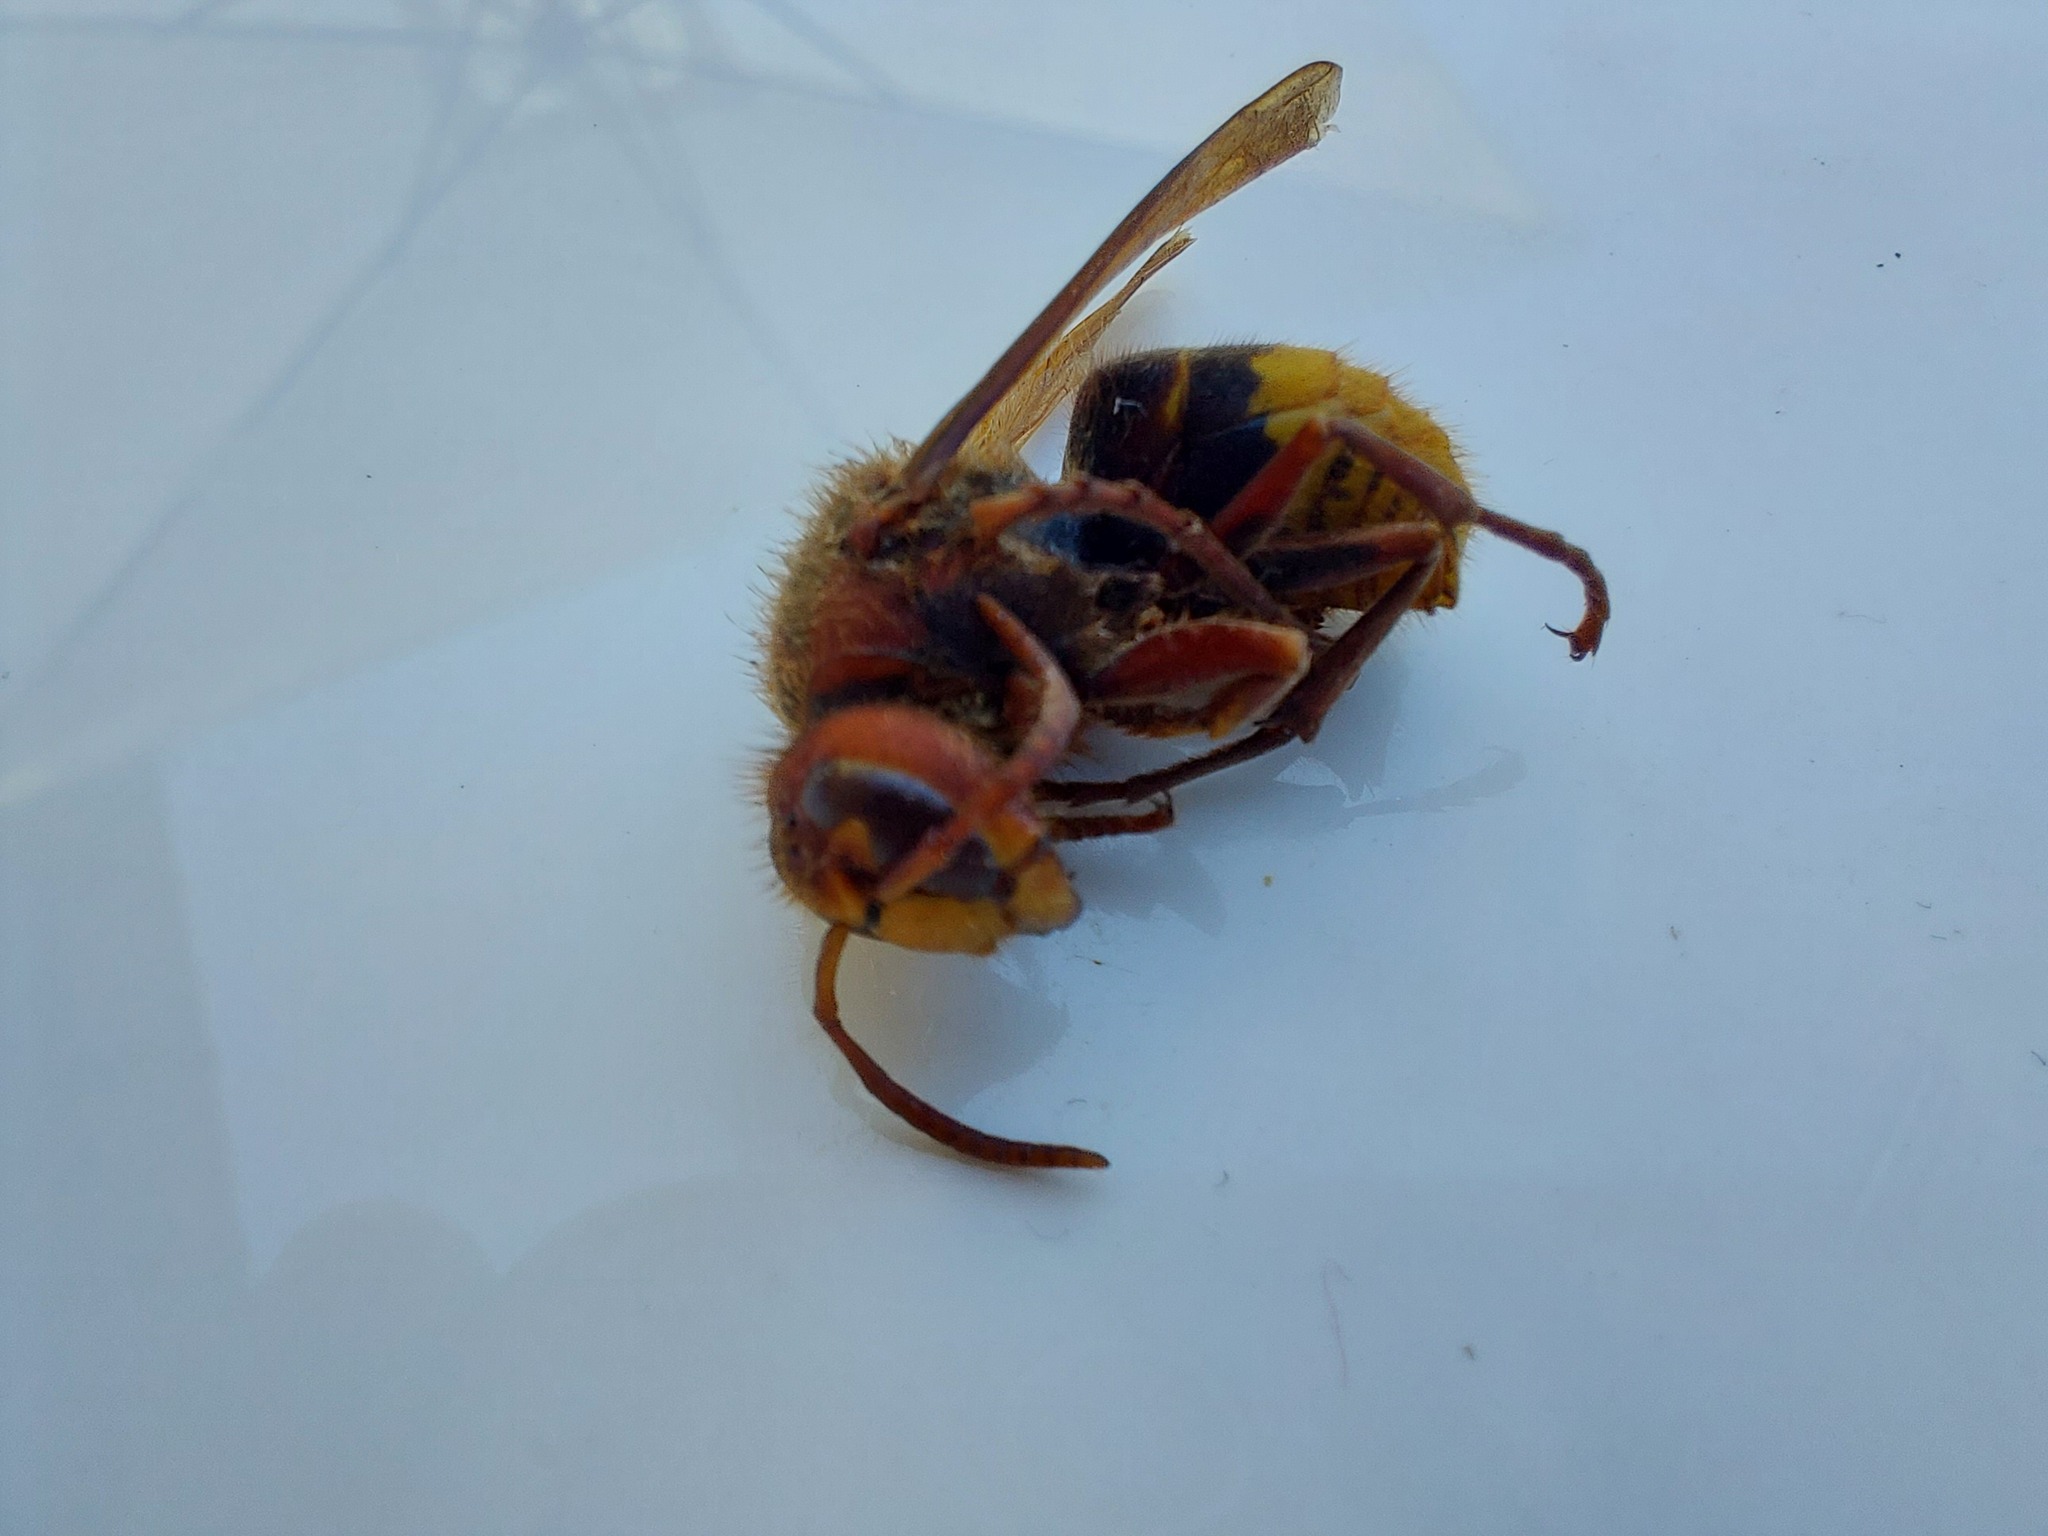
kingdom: Animalia
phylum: Arthropoda
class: Insecta
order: Hymenoptera
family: Vespidae
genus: Vespa
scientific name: Vespa crabro
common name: Hornet
